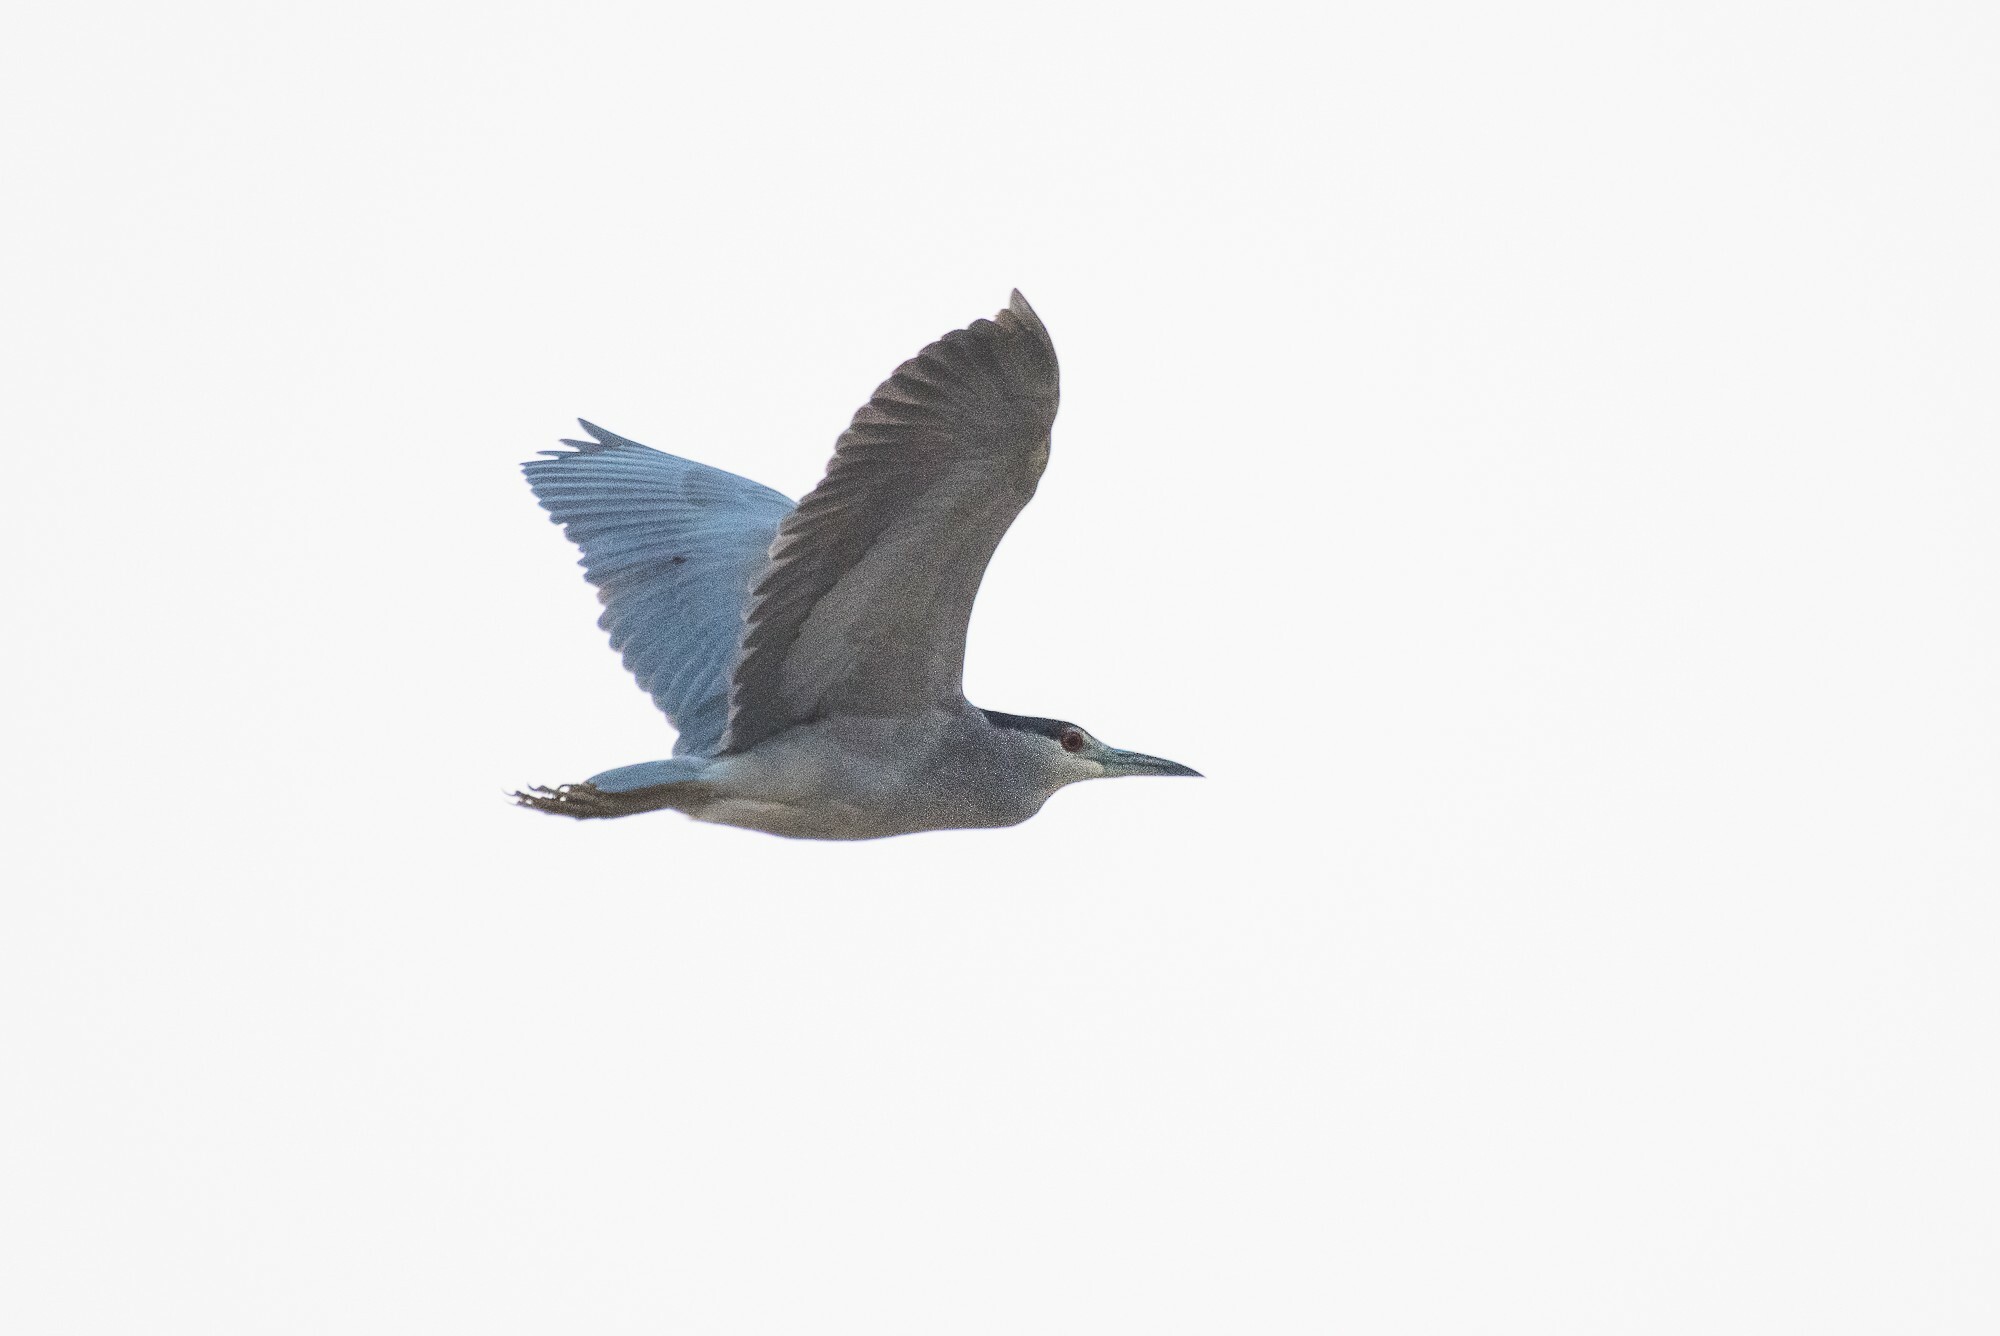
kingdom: Animalia
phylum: Chordata
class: Aves
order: Pelecaniformes
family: Ardeidae
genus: Nycticorax
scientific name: Nycticorax nycticorax
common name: Black-crowned night heron
